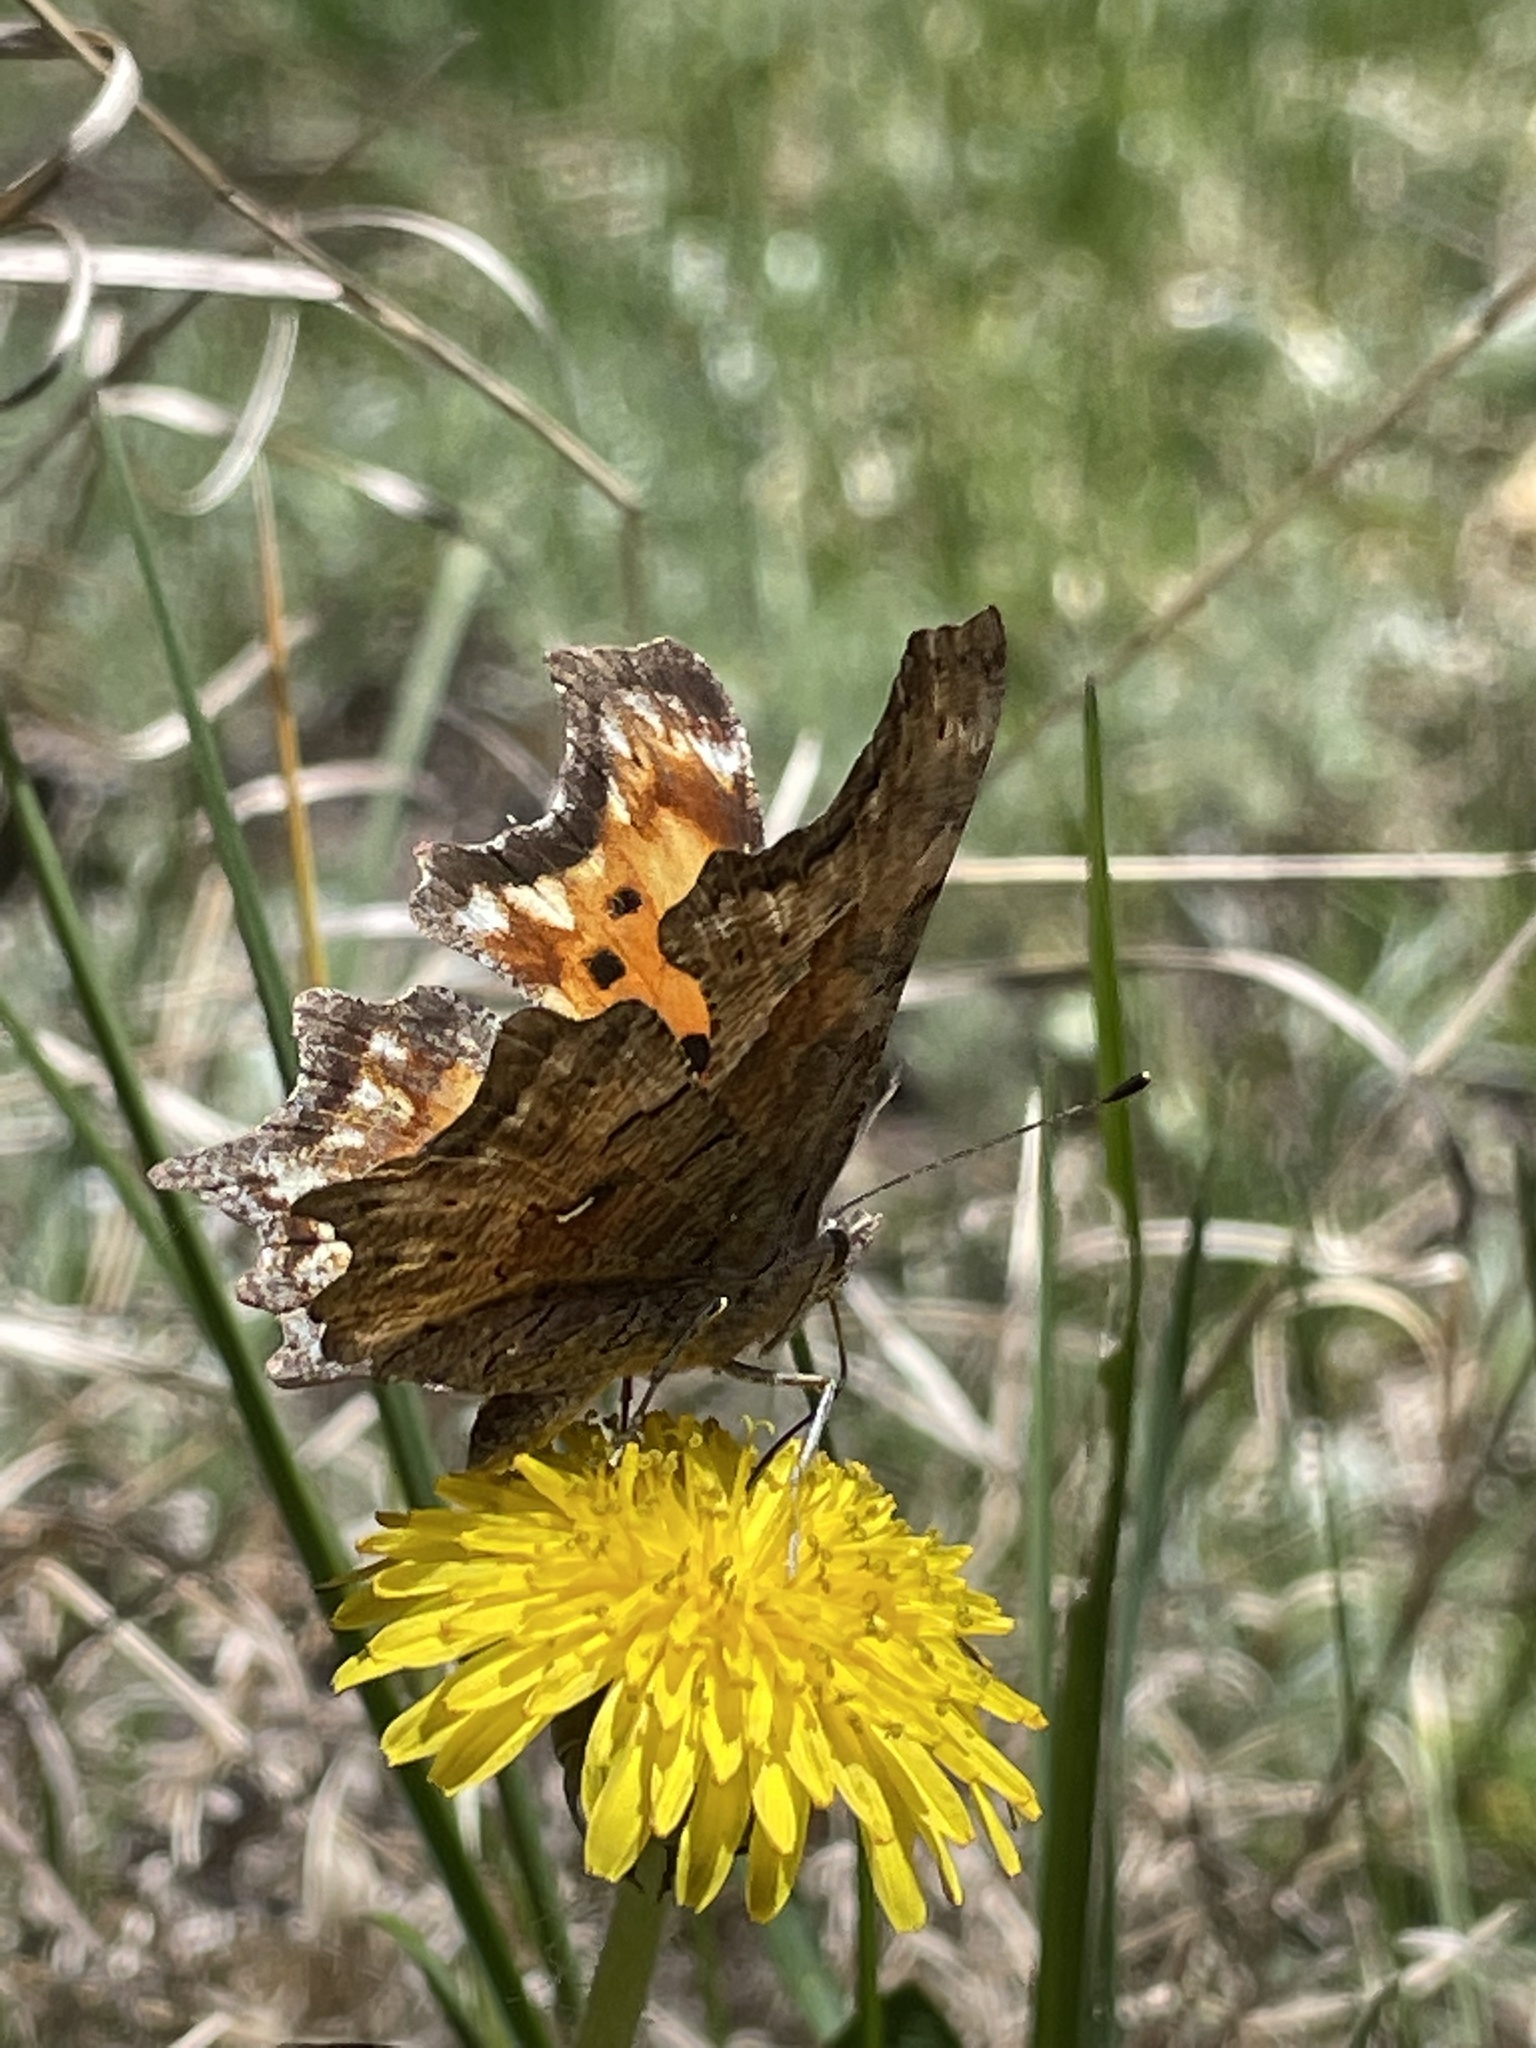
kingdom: Animalia
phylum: Arthropoda
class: Insecta
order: Lepidoptera
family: Nymphalidae
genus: Polygonia
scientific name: Polygonia gracilis
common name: Hoary comma
